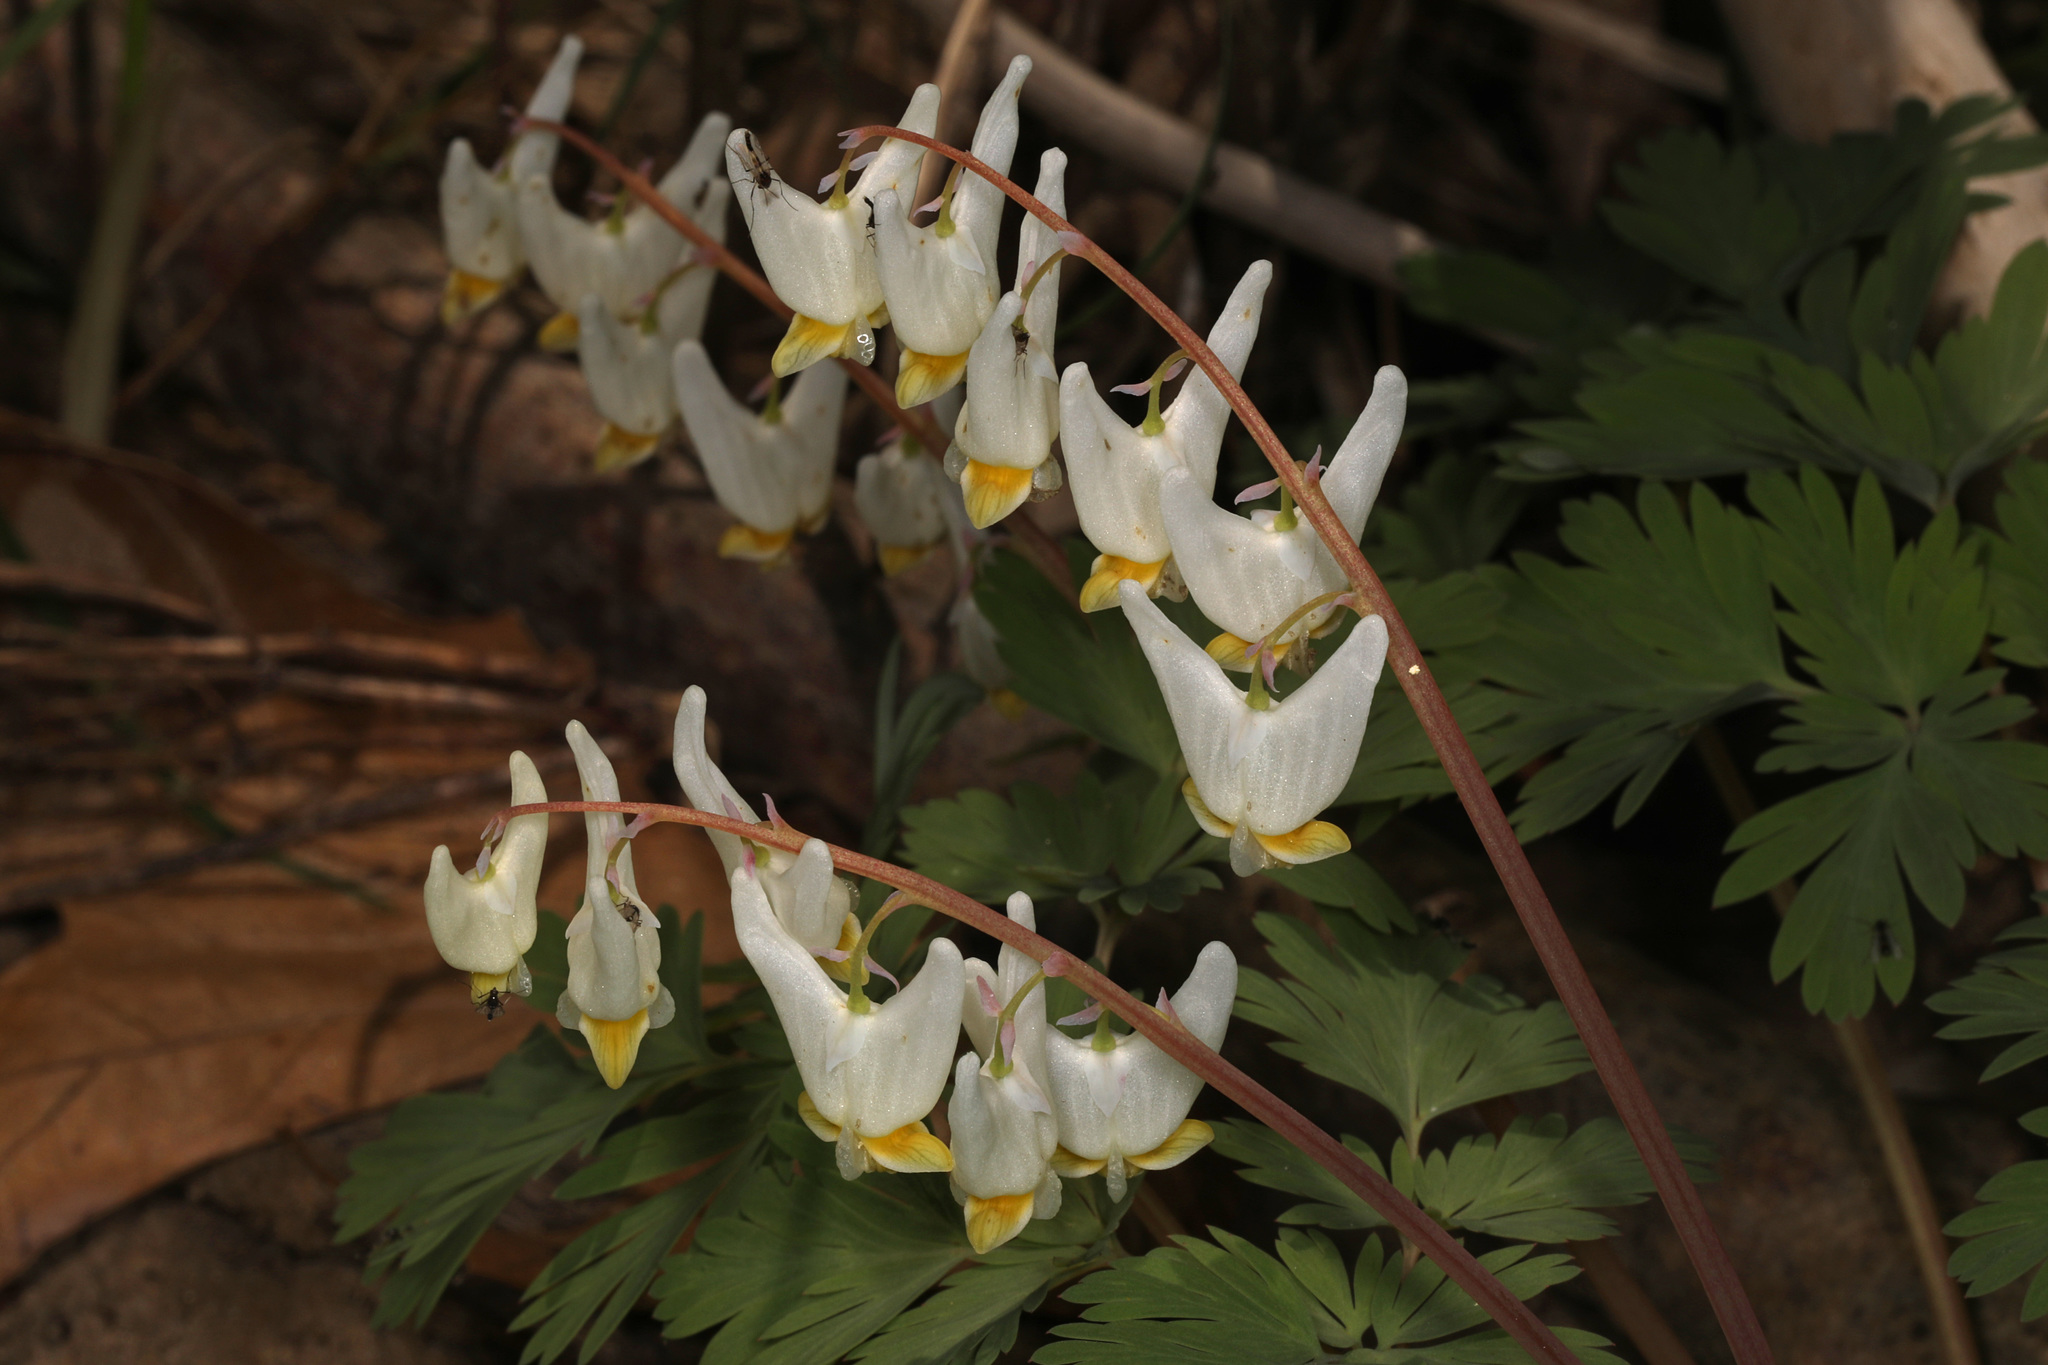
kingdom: Plantae
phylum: Tracheophyta
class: Magnoliopsida
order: Ranunculales
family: Papaveraceae
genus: Dicentra
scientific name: Dicentra cucullaria
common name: Dutchman's breeches
